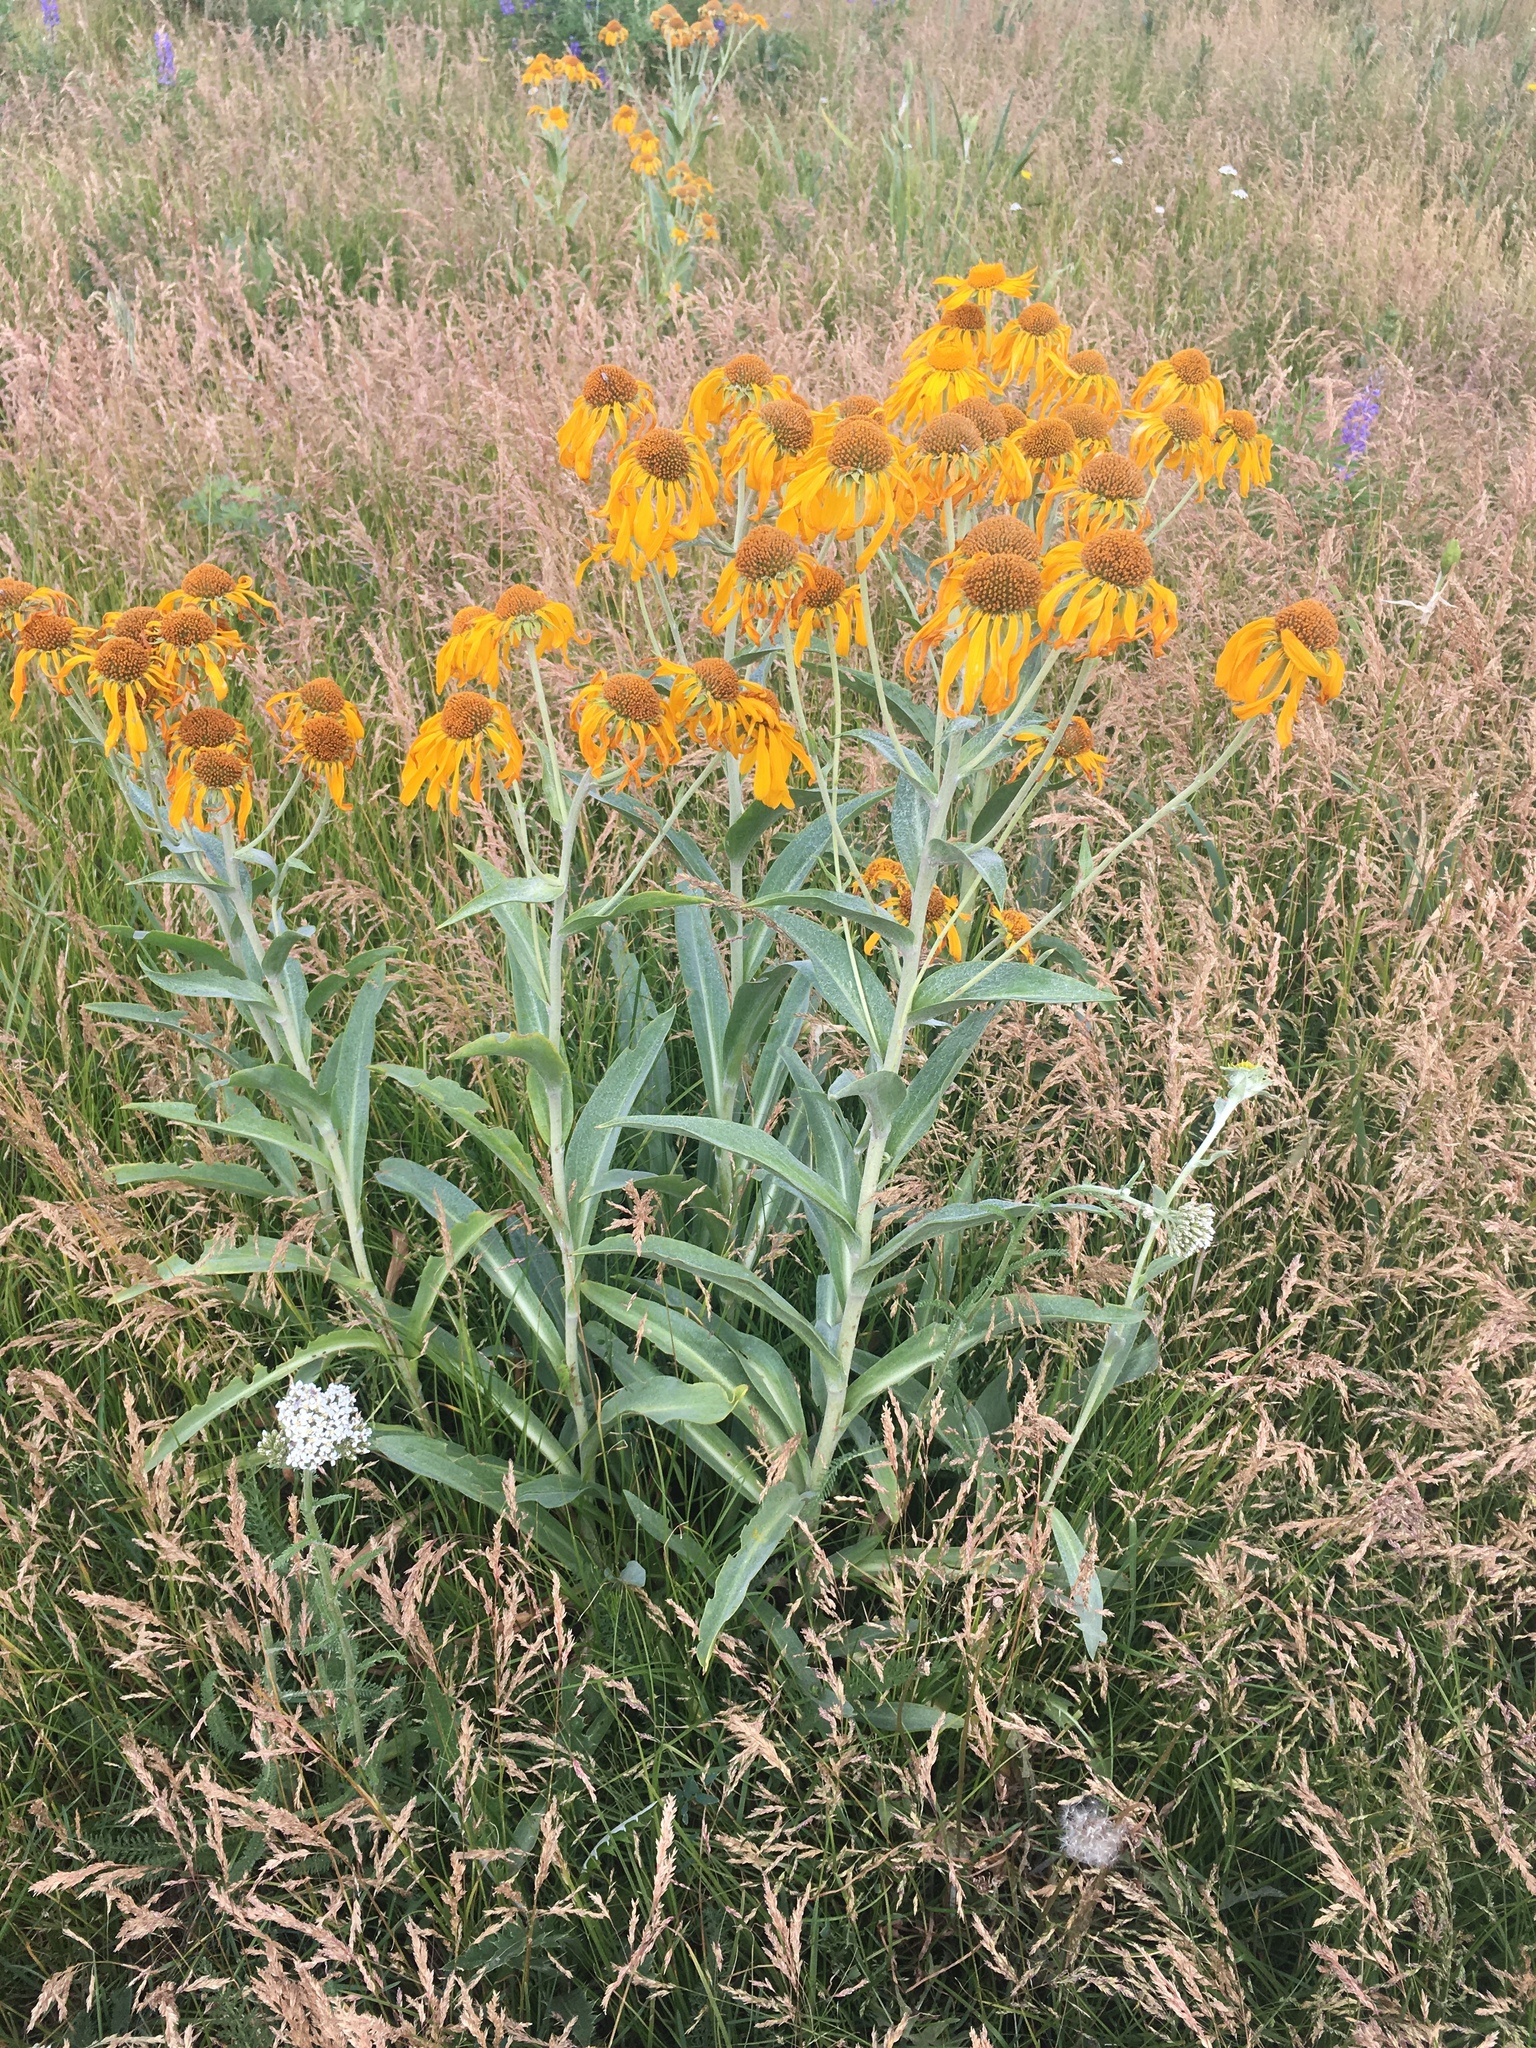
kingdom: Plantae
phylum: Tracheophyta
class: Magnoliopsida
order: Asterales
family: Asteraceae
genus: Hymenoxys
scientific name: Hymenoxys hoopesii
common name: Orange-sneezeweed
